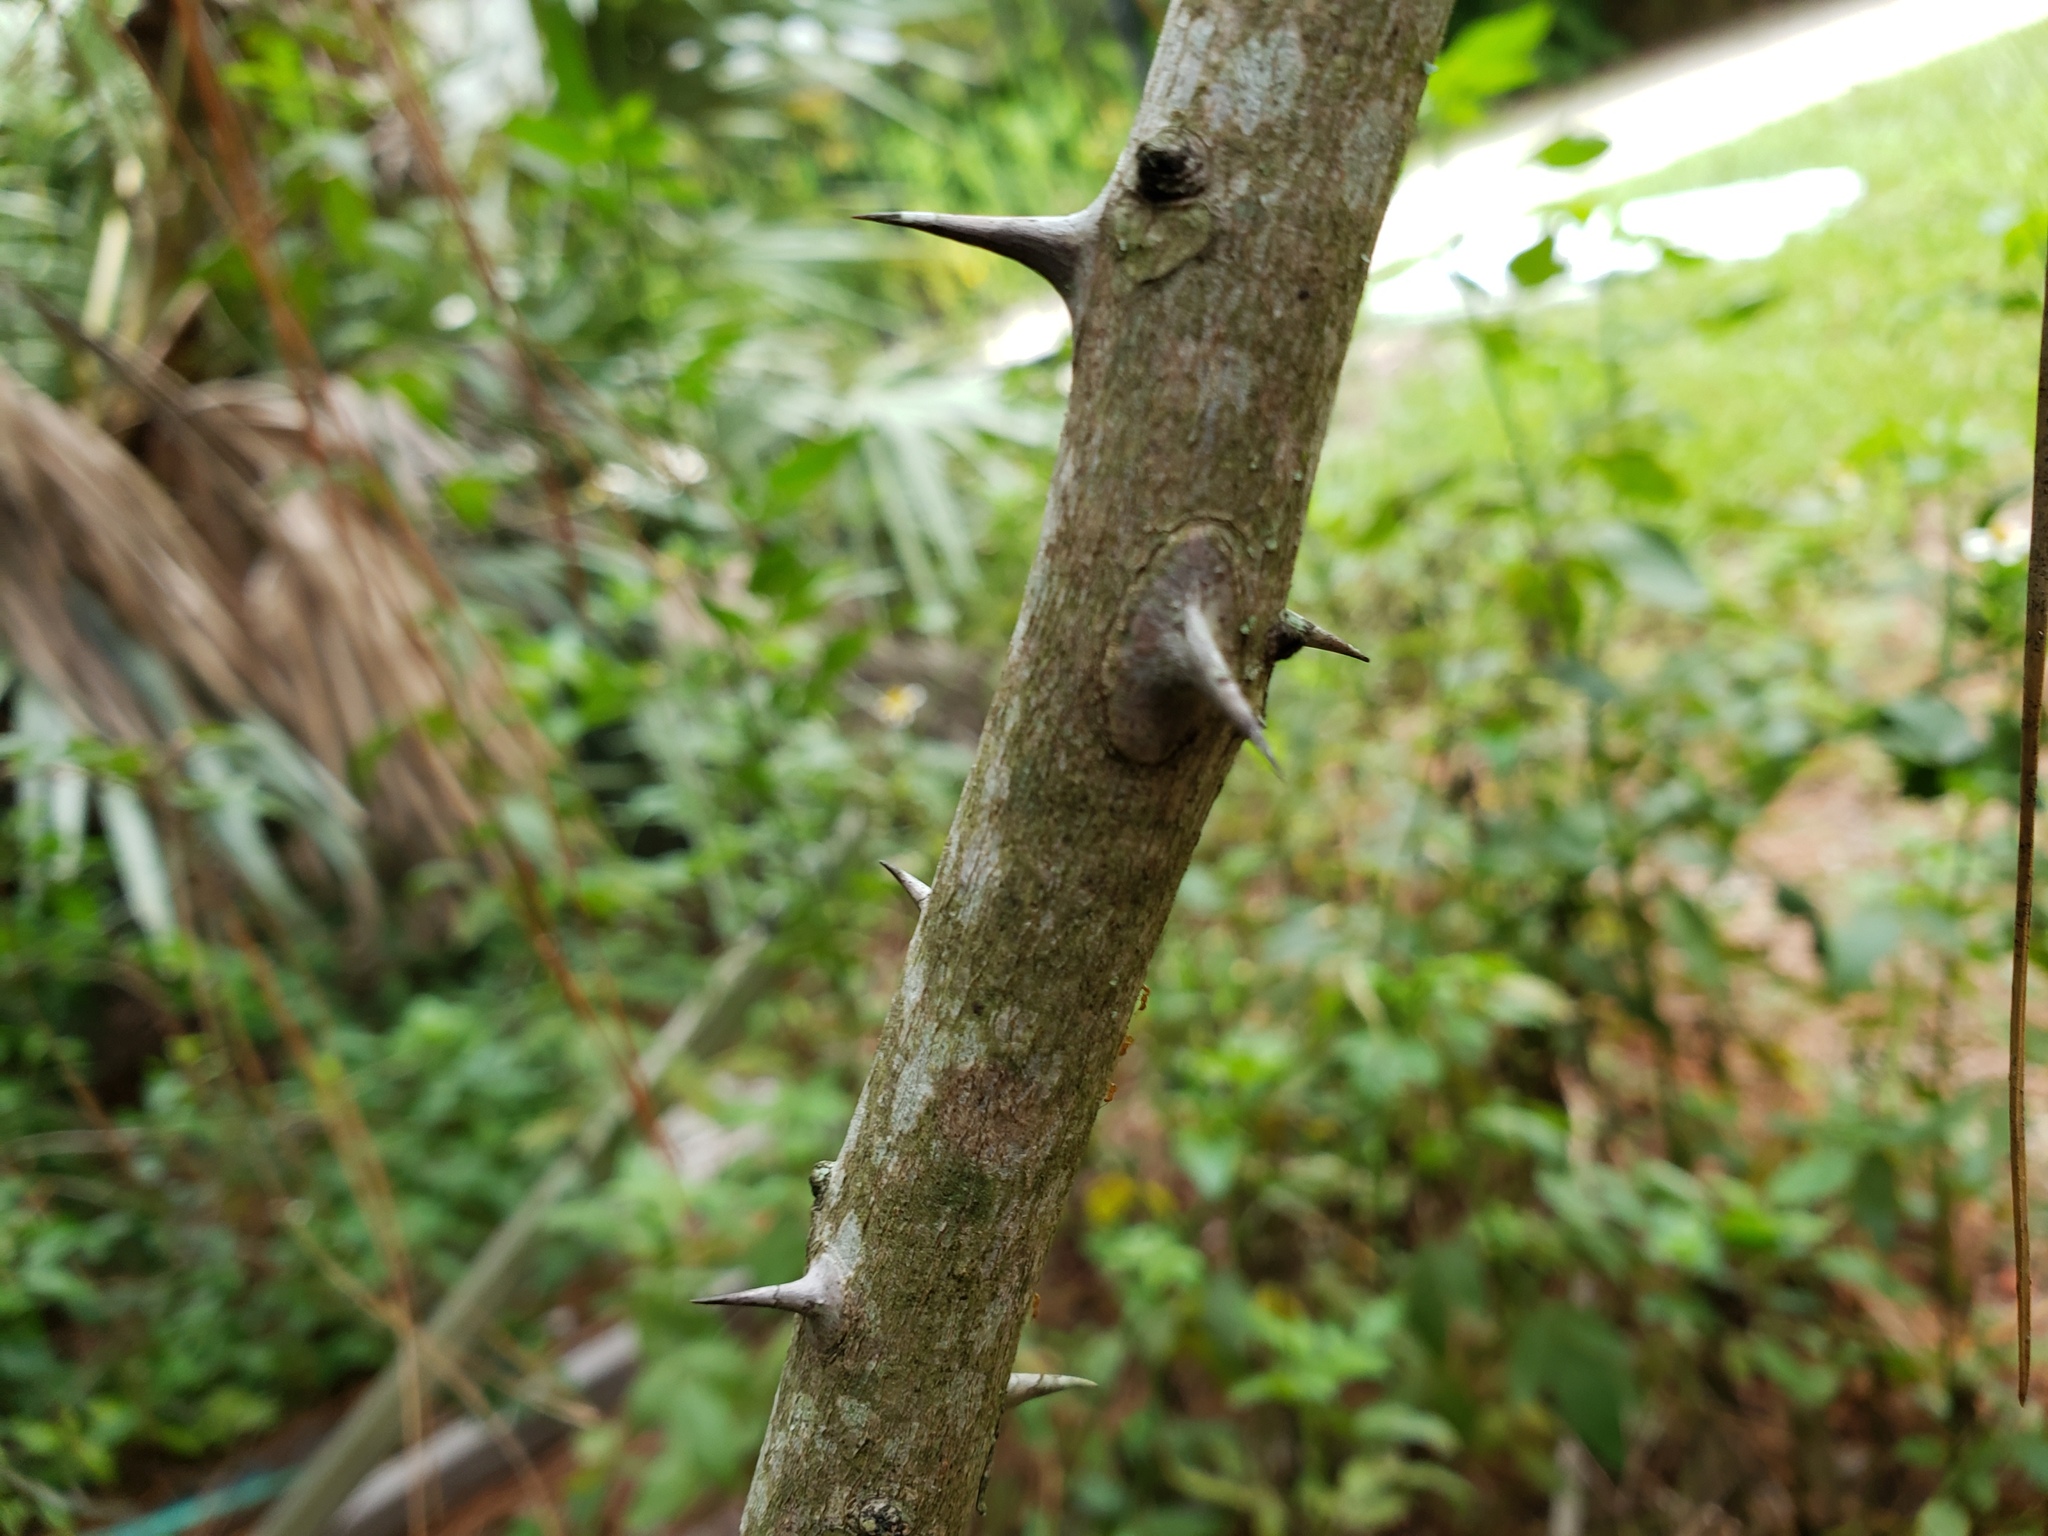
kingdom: Plantae
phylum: Tracheophyta
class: Magnoliopsida
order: Sapindales
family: Rutaceae
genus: Zanthoxylum
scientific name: Zanthoxylum clava-herculis
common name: Hercules'-club
